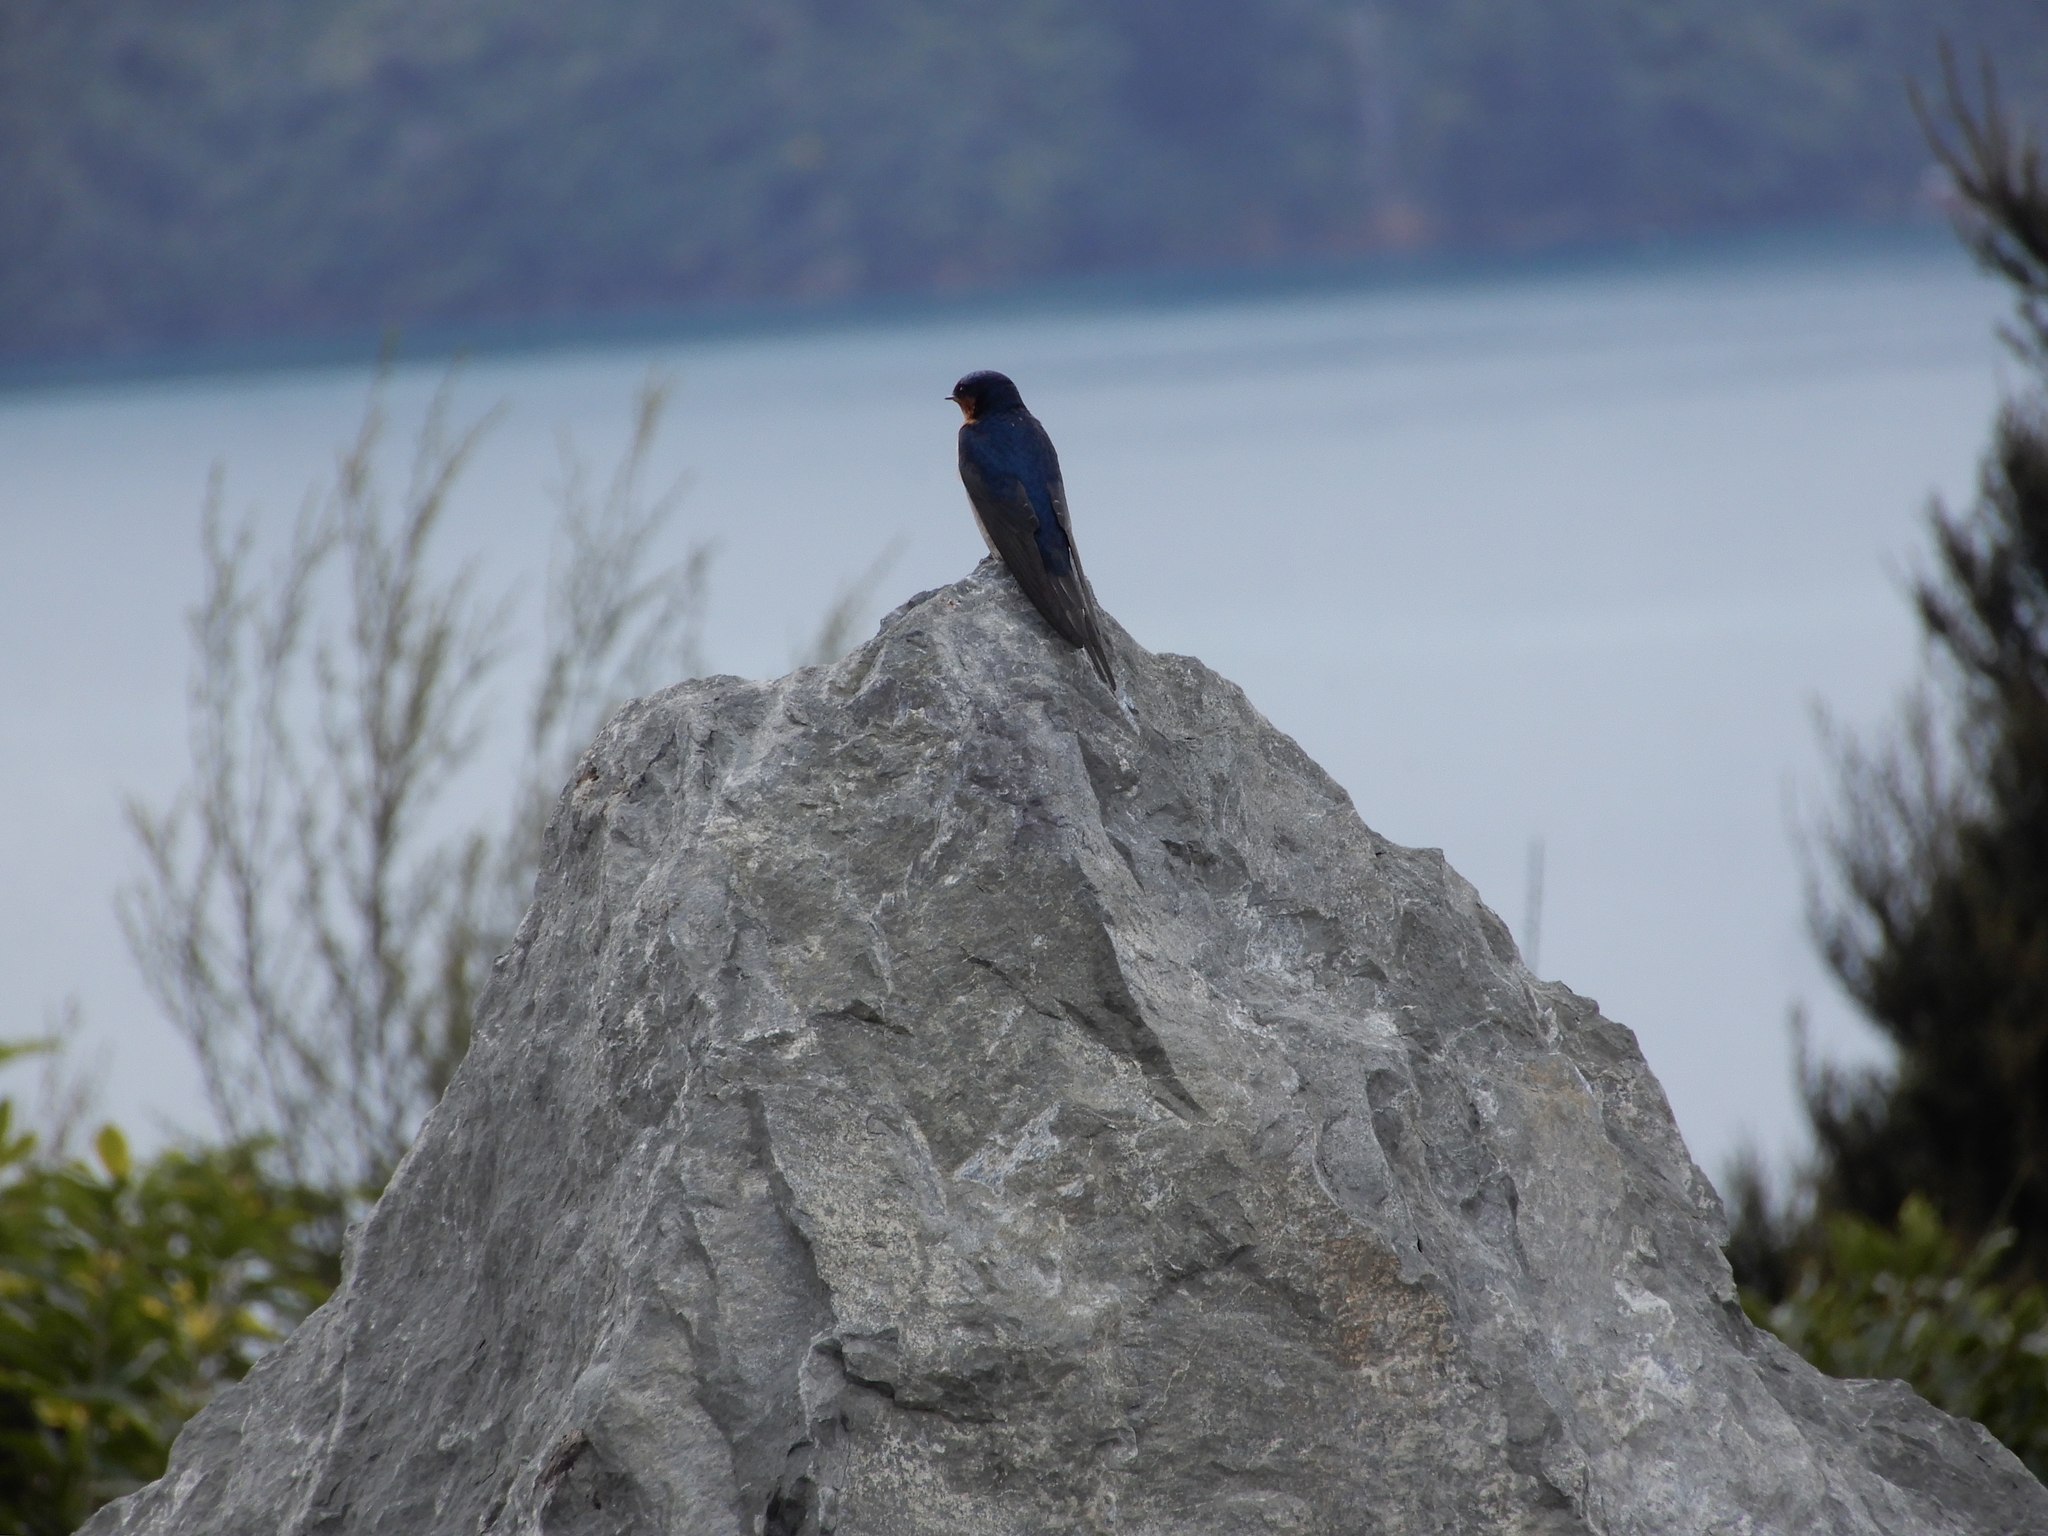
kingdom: Animalia
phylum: Chordata
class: Aves
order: Passeriformes
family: Hirundinidae
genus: Hirundo
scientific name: Hirundo neoxena
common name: Welcome swallow
